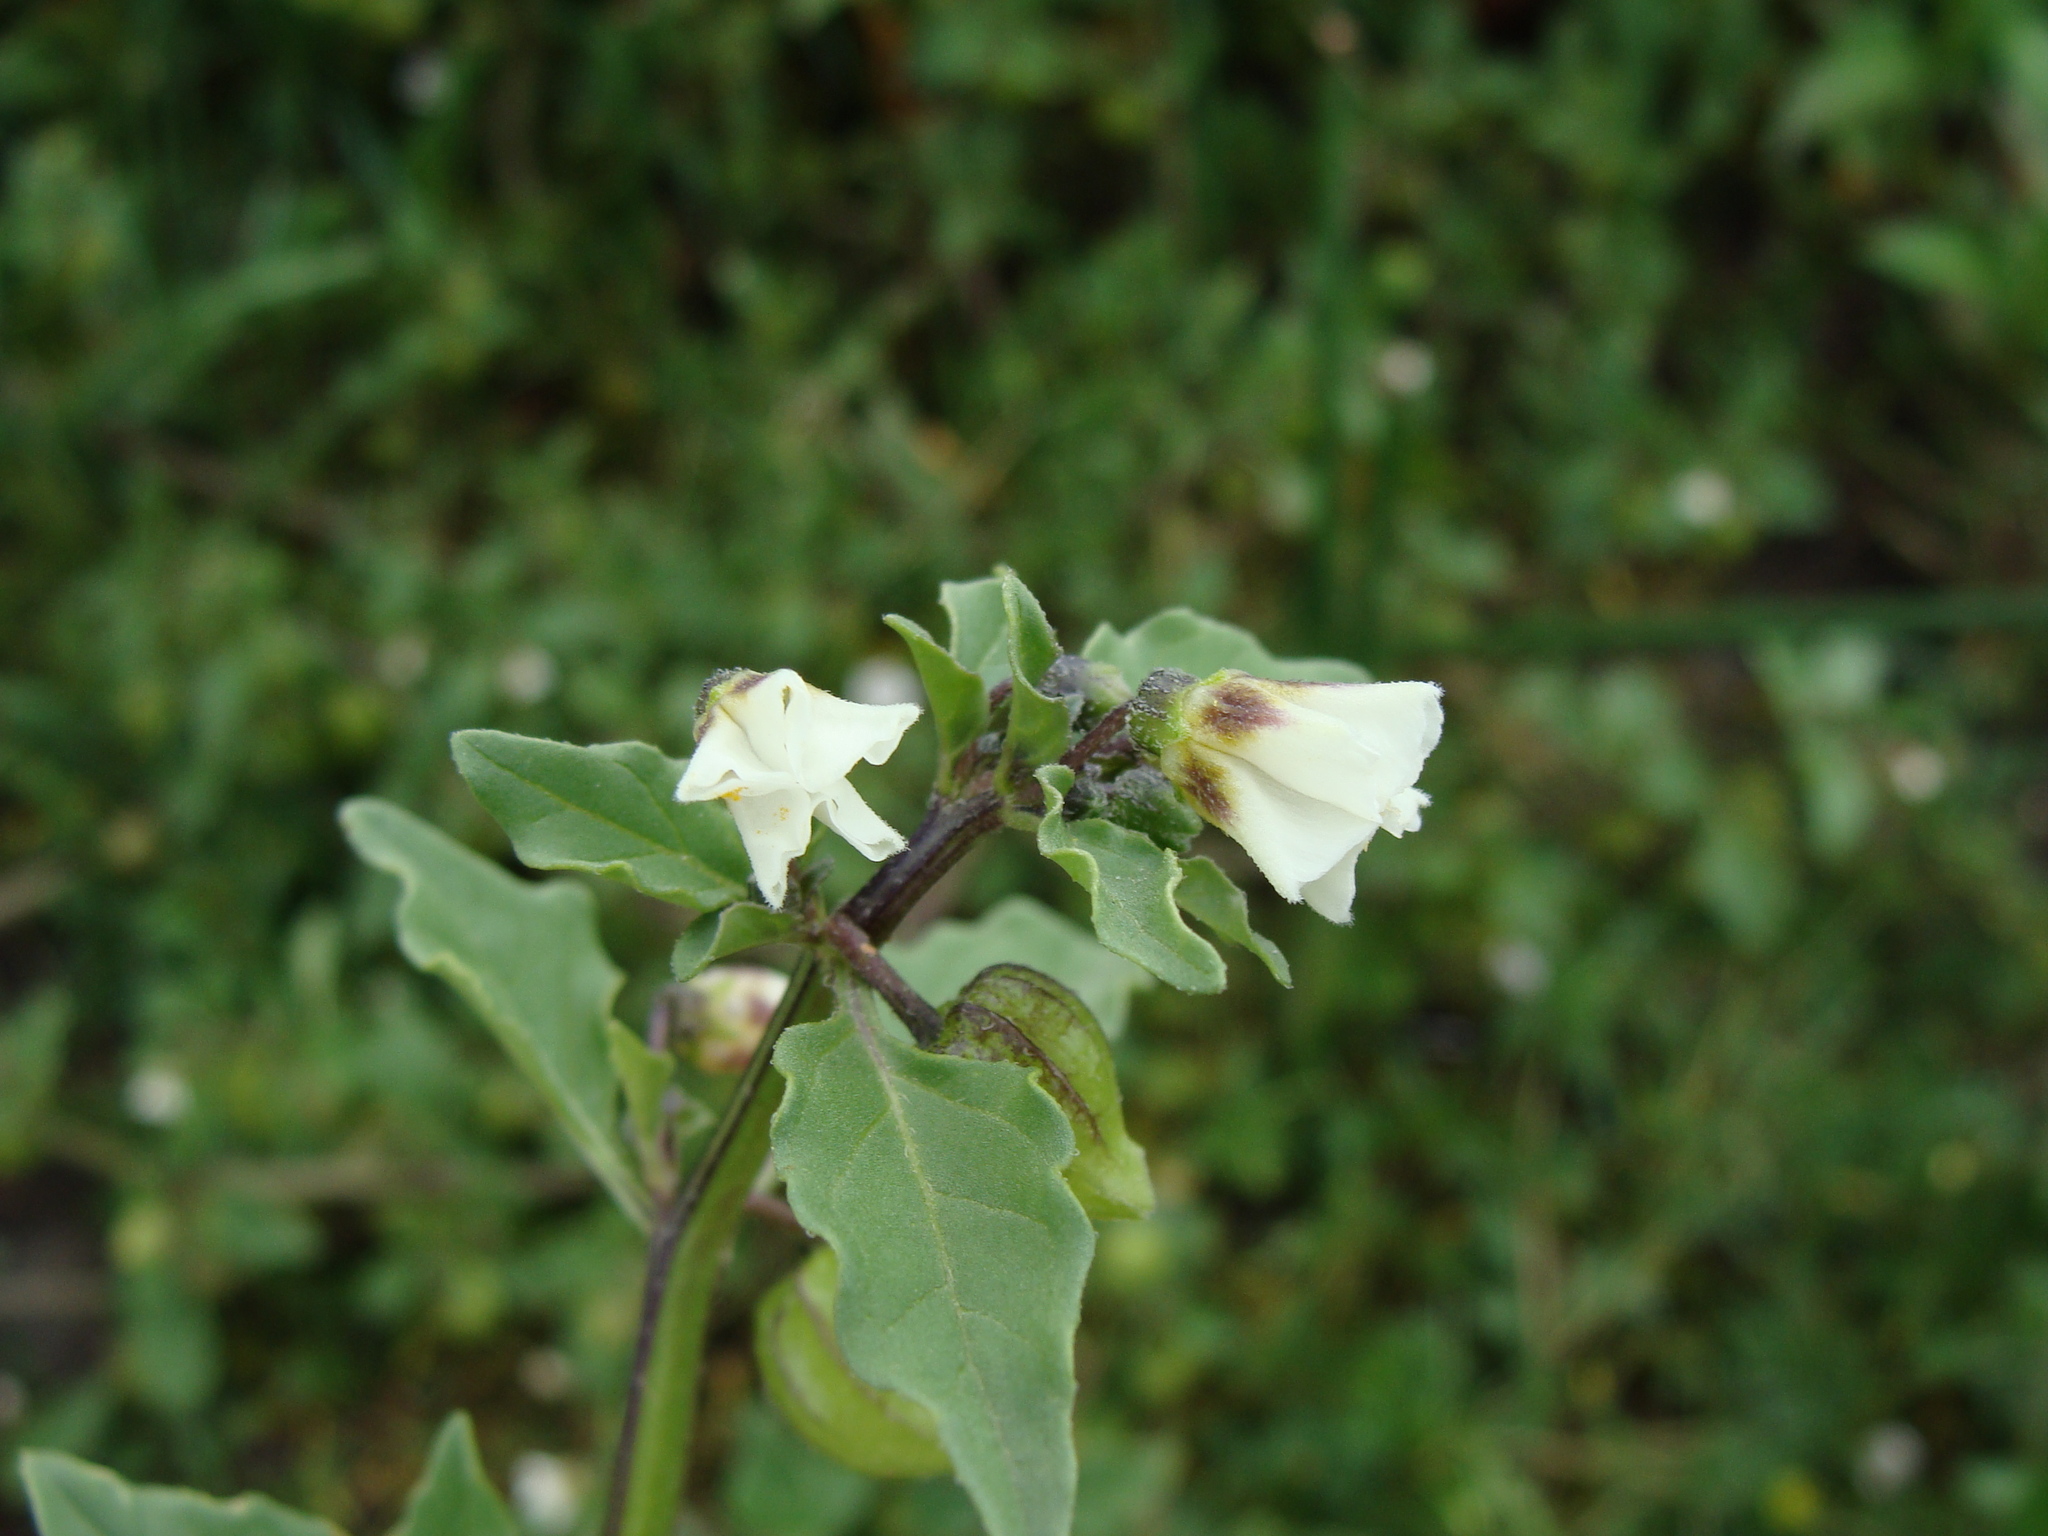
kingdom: Plantae
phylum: Tracheophyta
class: Magnoliopsida
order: Solanales
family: Solanaceae
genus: Physalis
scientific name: Physalis sulphurea
